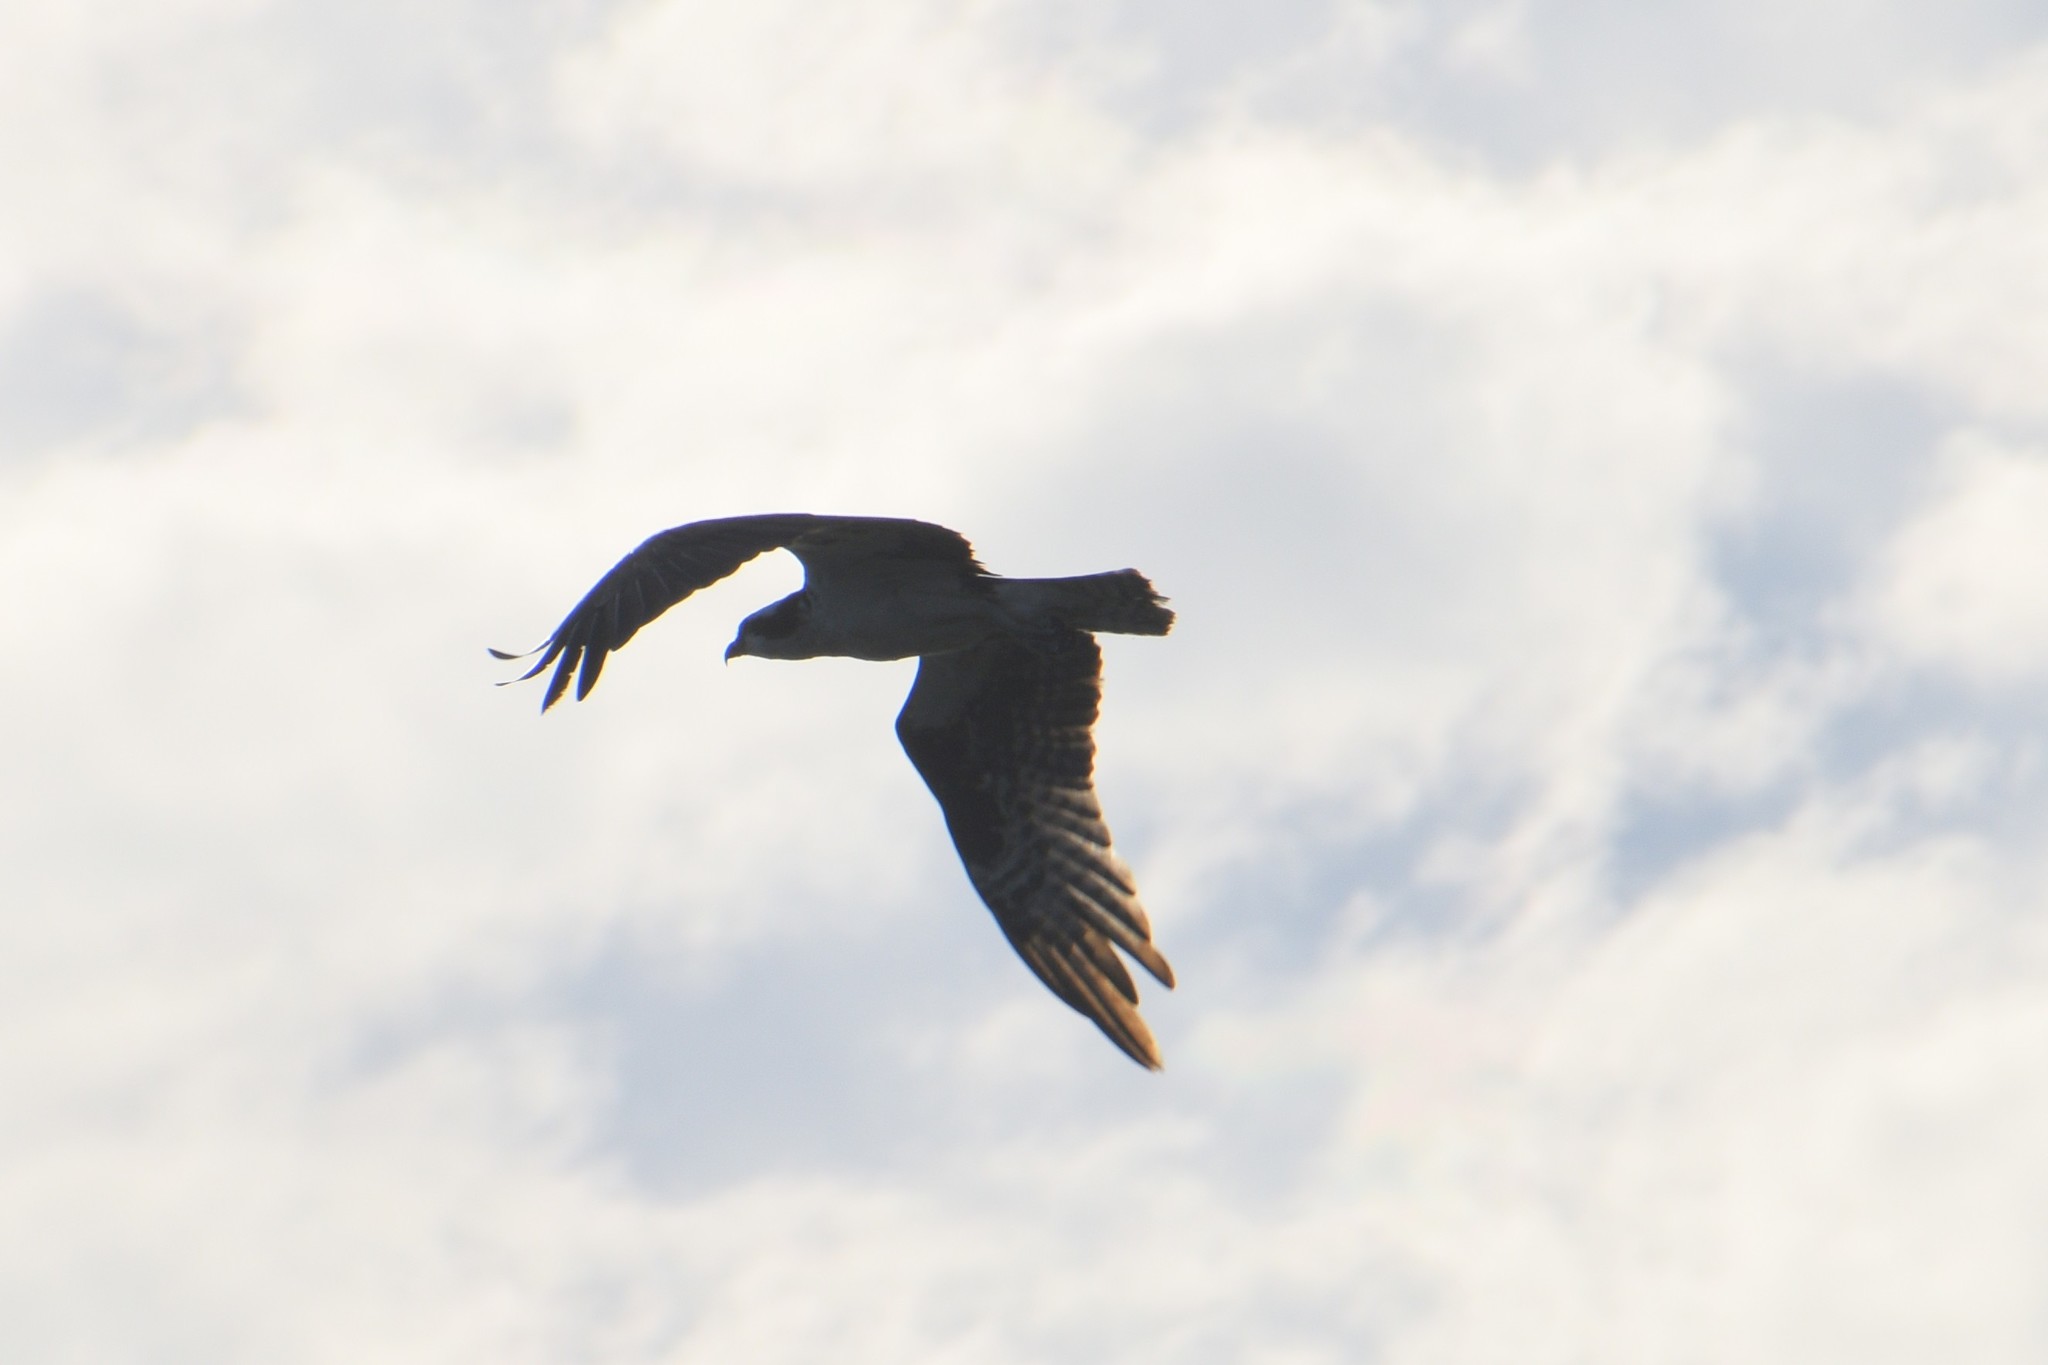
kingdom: Animalia
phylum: Chordata
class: Aves
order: Accipitriformes
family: Pandionidae
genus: Pandion
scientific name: Pandion haliaetus
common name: Osprey
